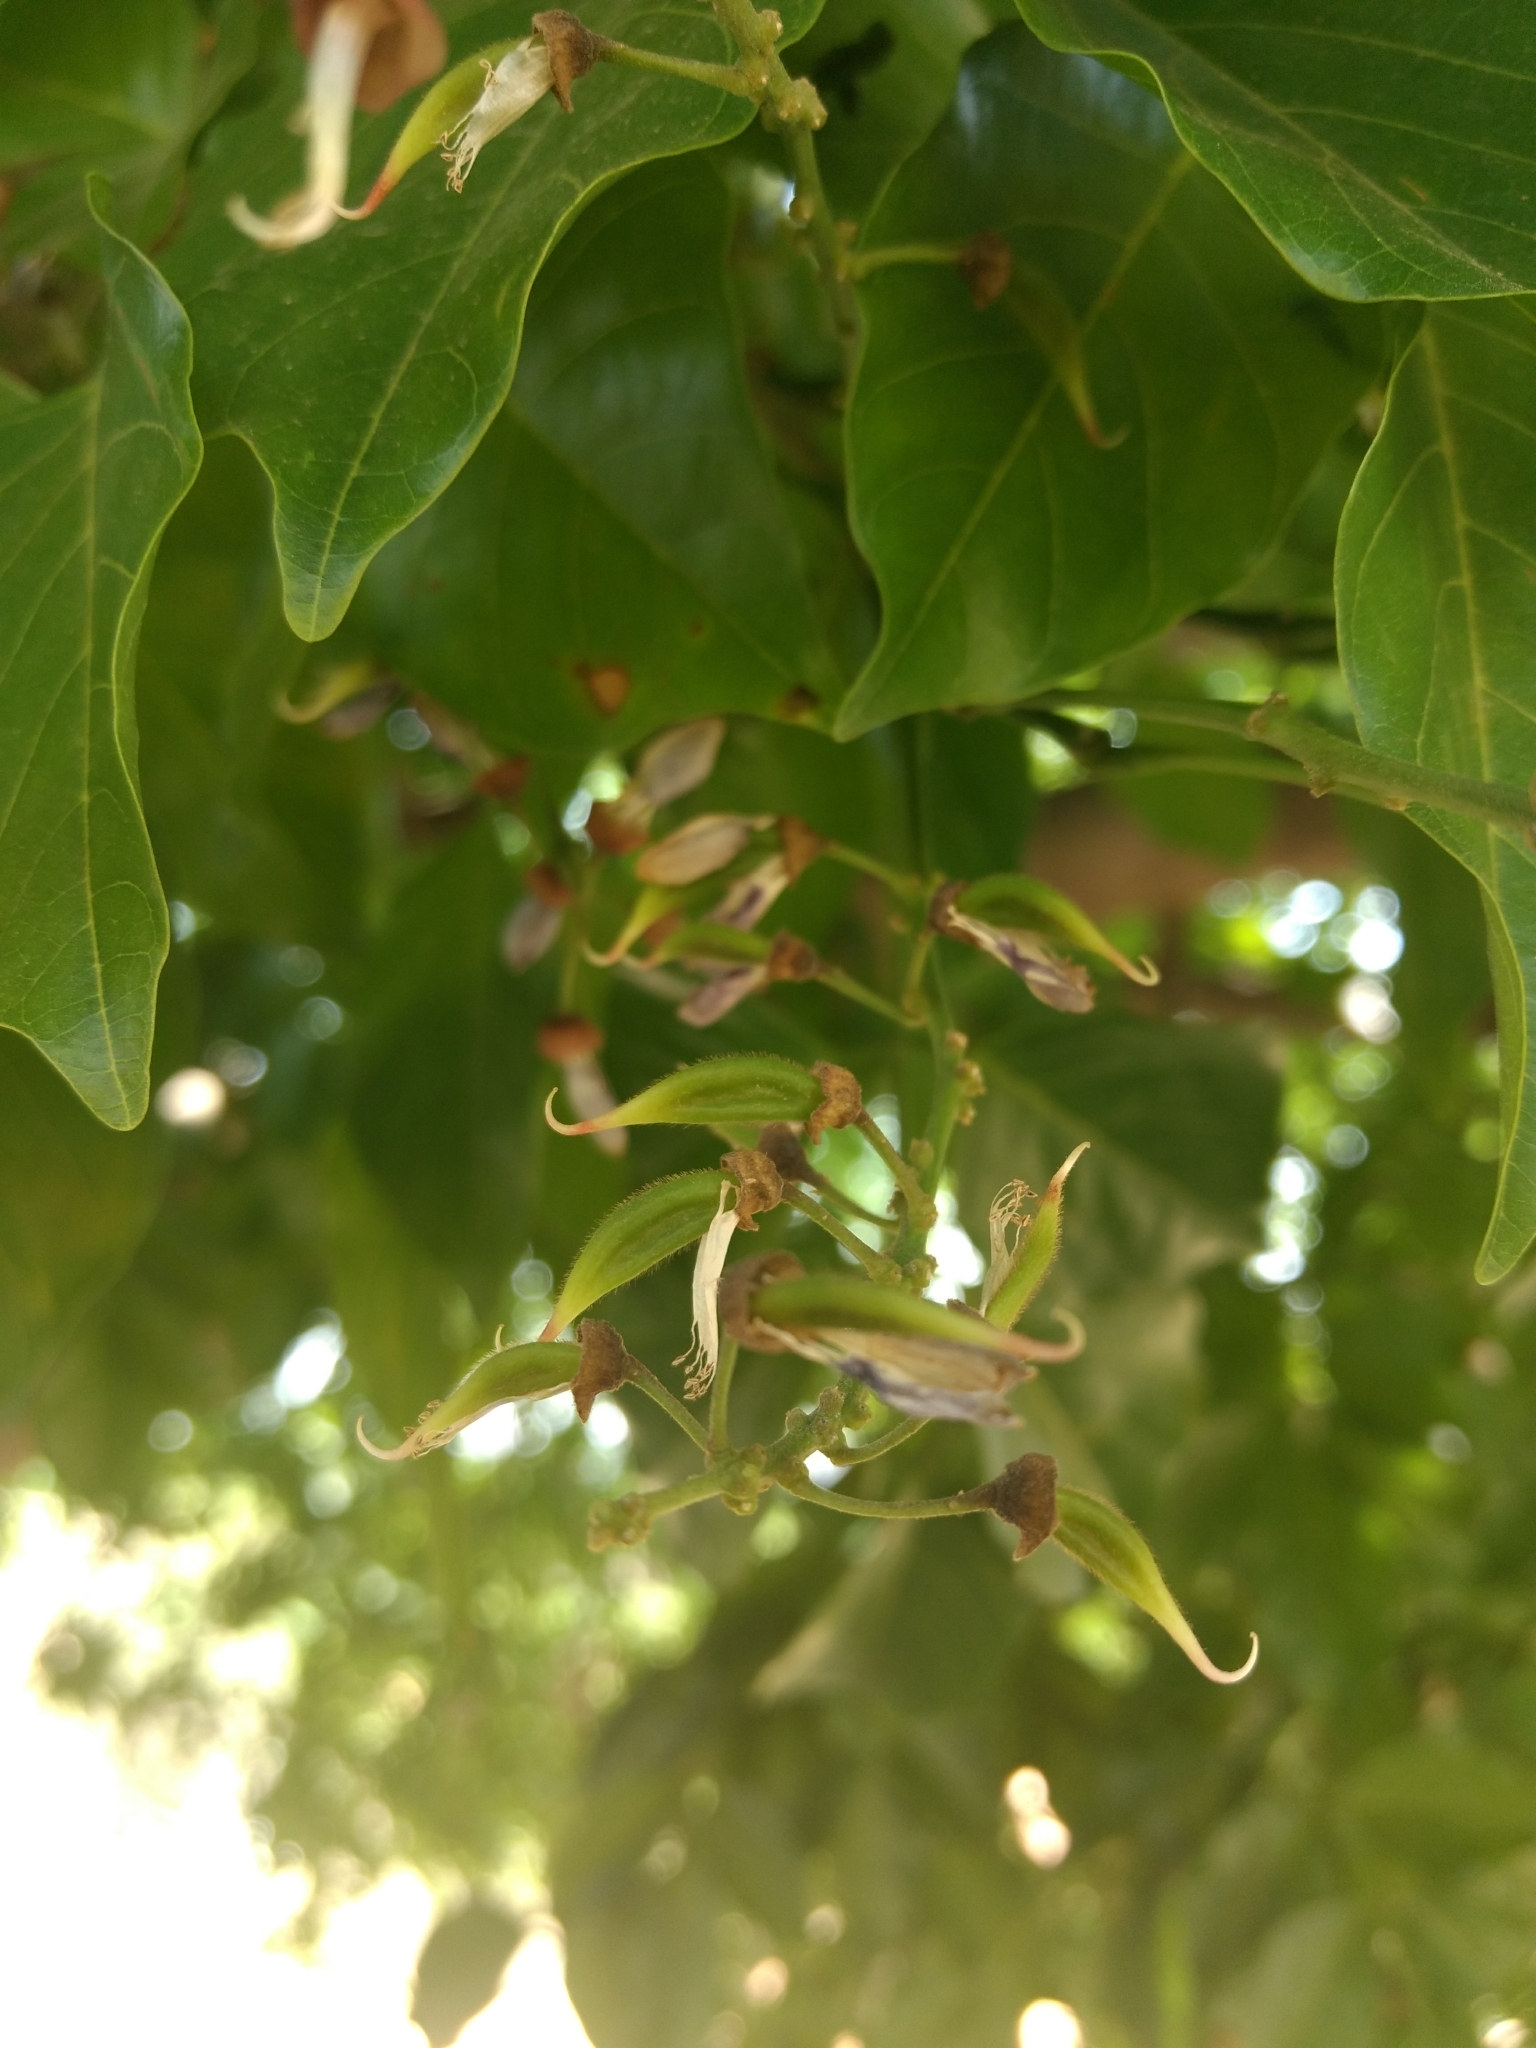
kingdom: Plantae
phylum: Tracheophyta
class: Magnoliopsida
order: Fabales
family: Fabaceae
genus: Pongamia
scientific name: Pongamia pinnata
